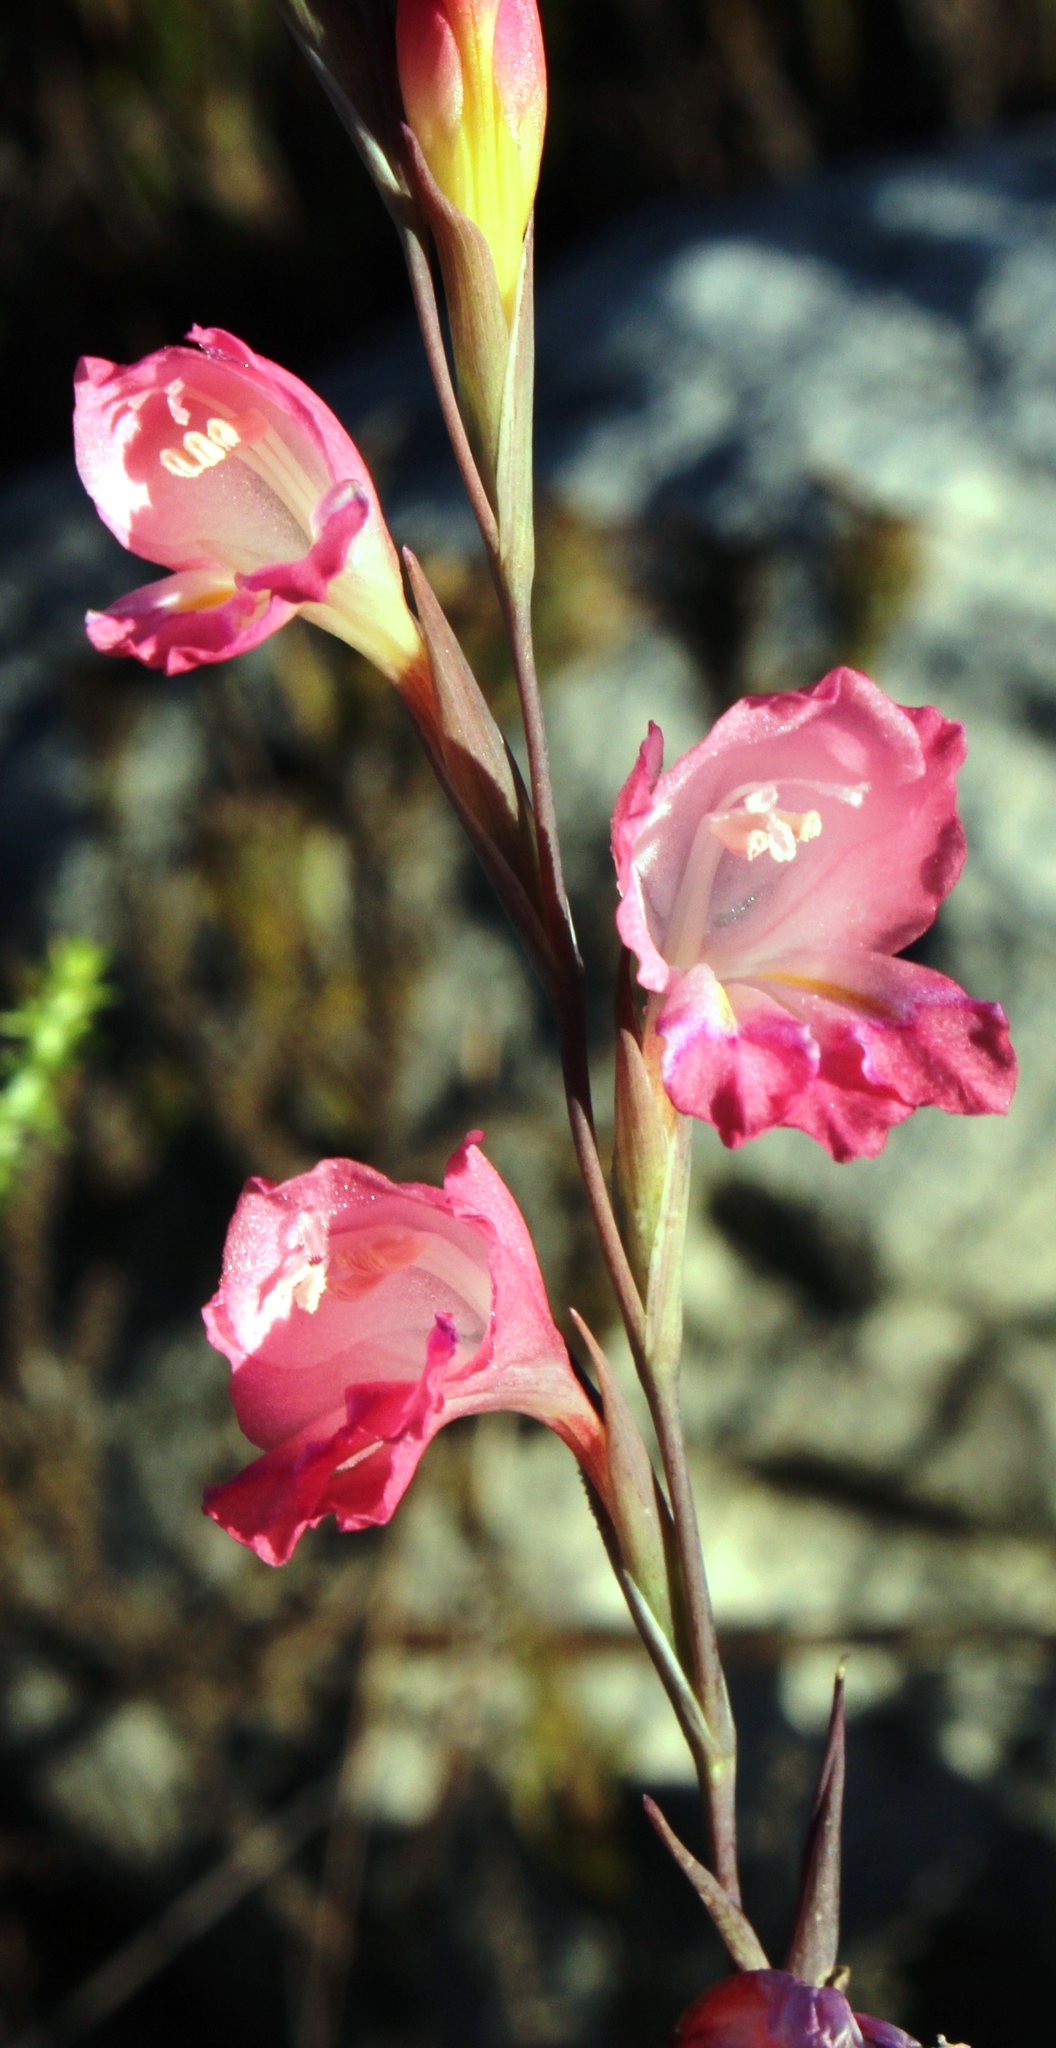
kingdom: Plantae
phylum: Tracheophyta
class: Liliopsida
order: Asparagales
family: Iridaceae
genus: Gladiolus
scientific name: Gladiolus brevifolius
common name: March pypie
